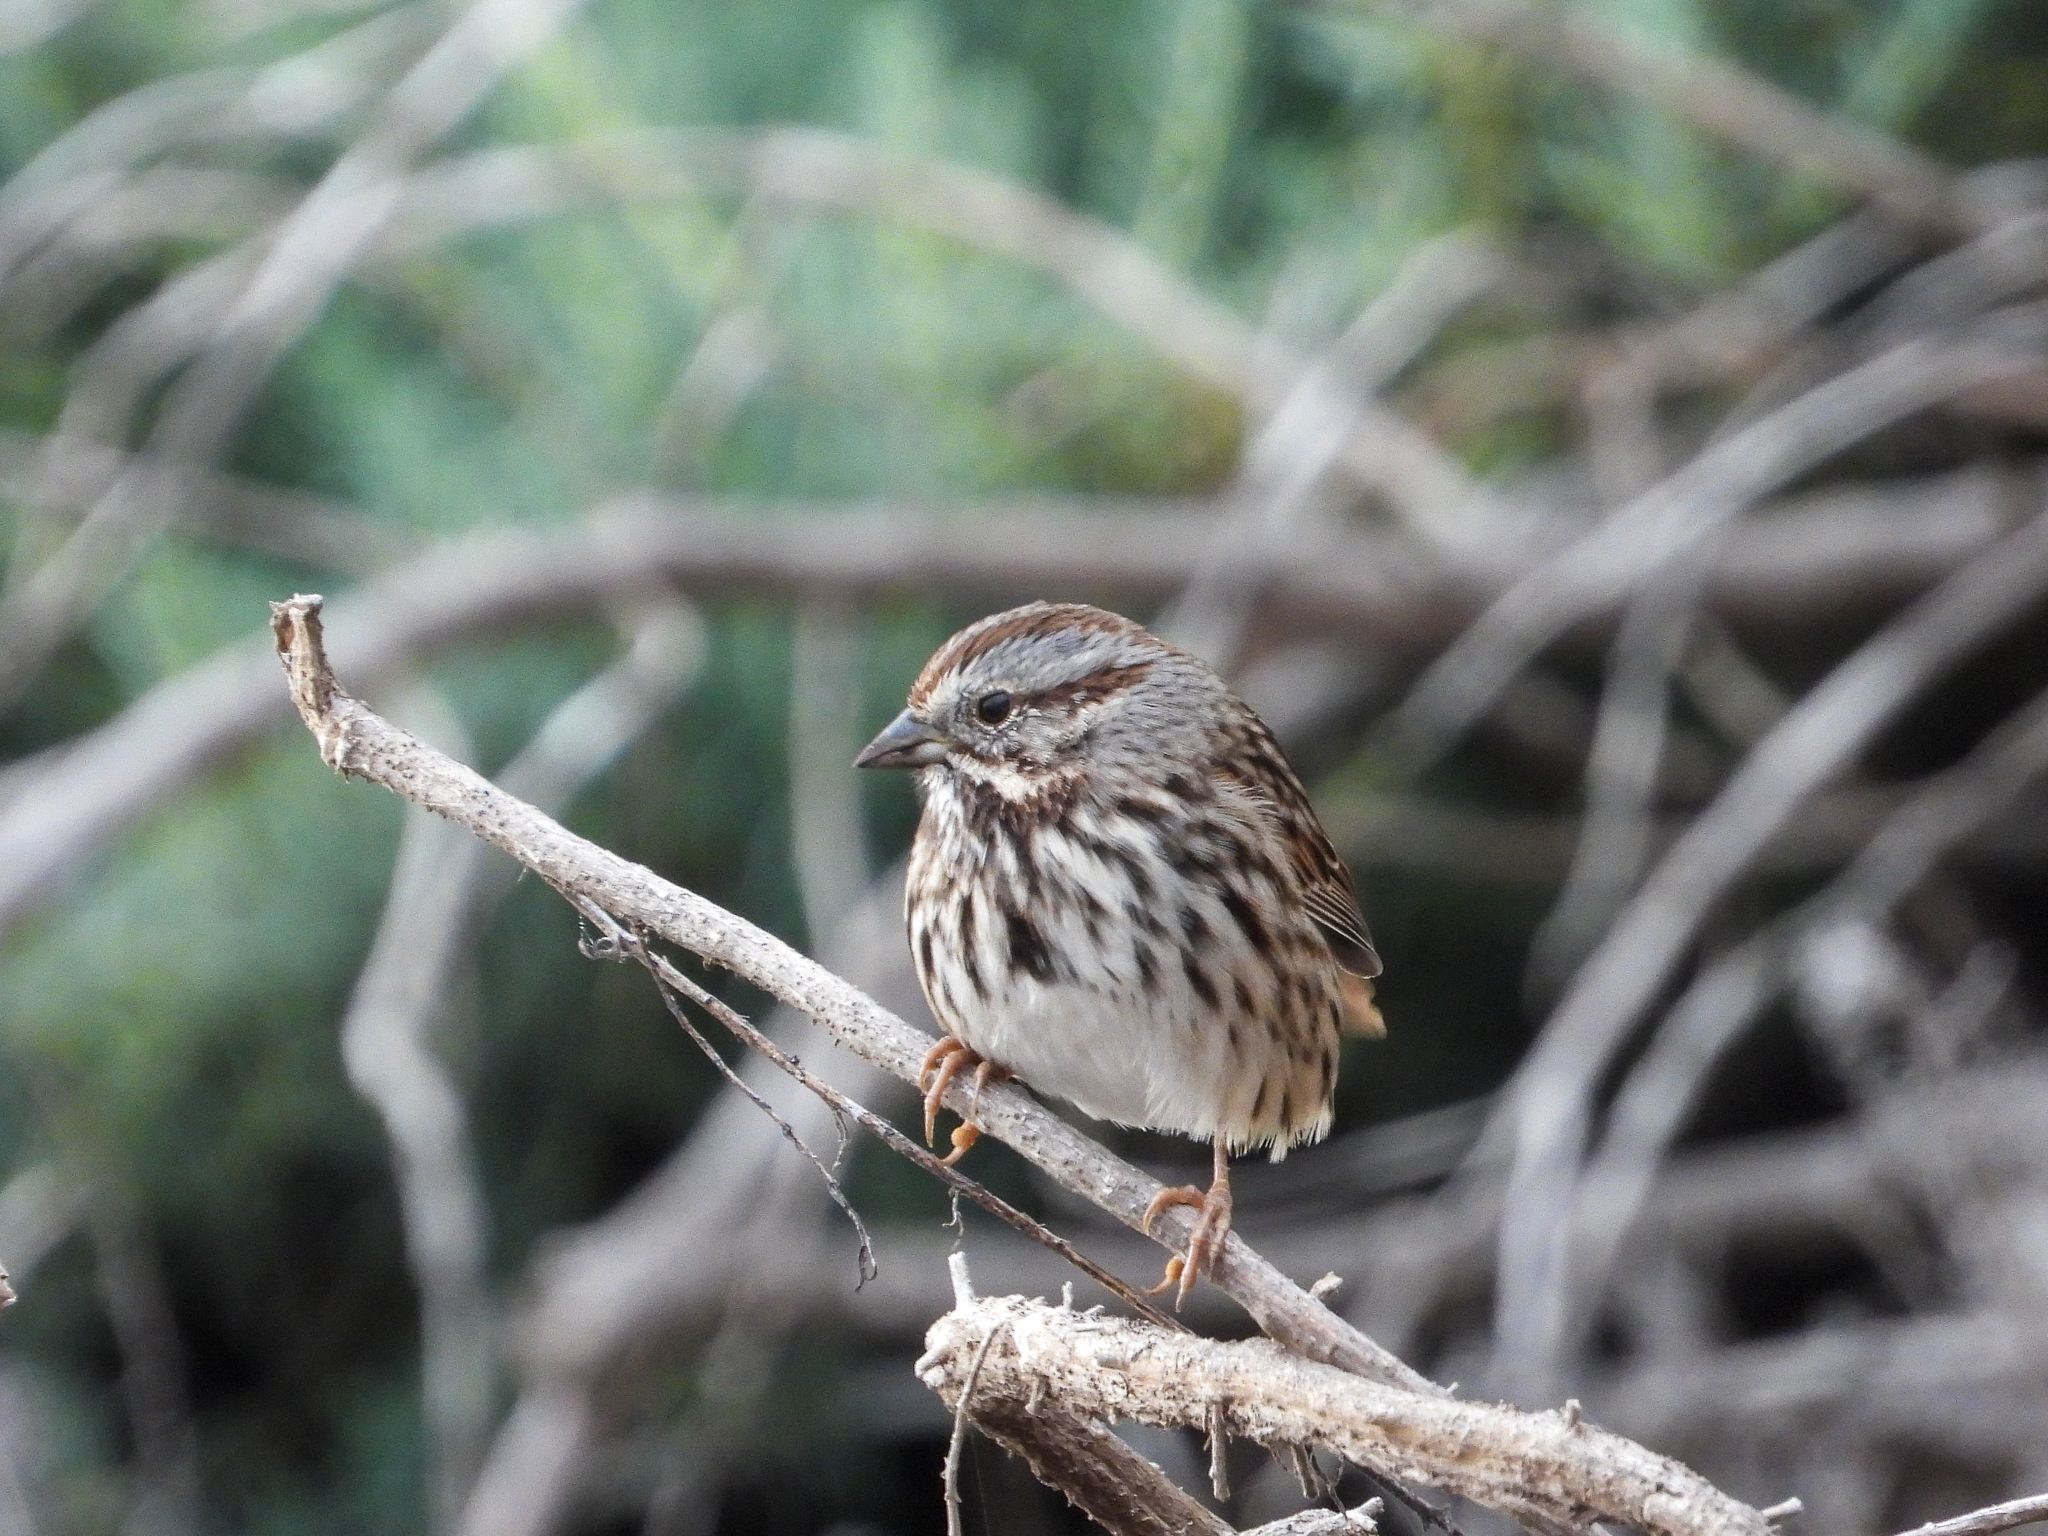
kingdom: Animalia
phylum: Chordata
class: Aves
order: Passeriformes
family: Passerellidae
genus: Melospiza
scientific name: Melospiza melodia
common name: Song sparrow
